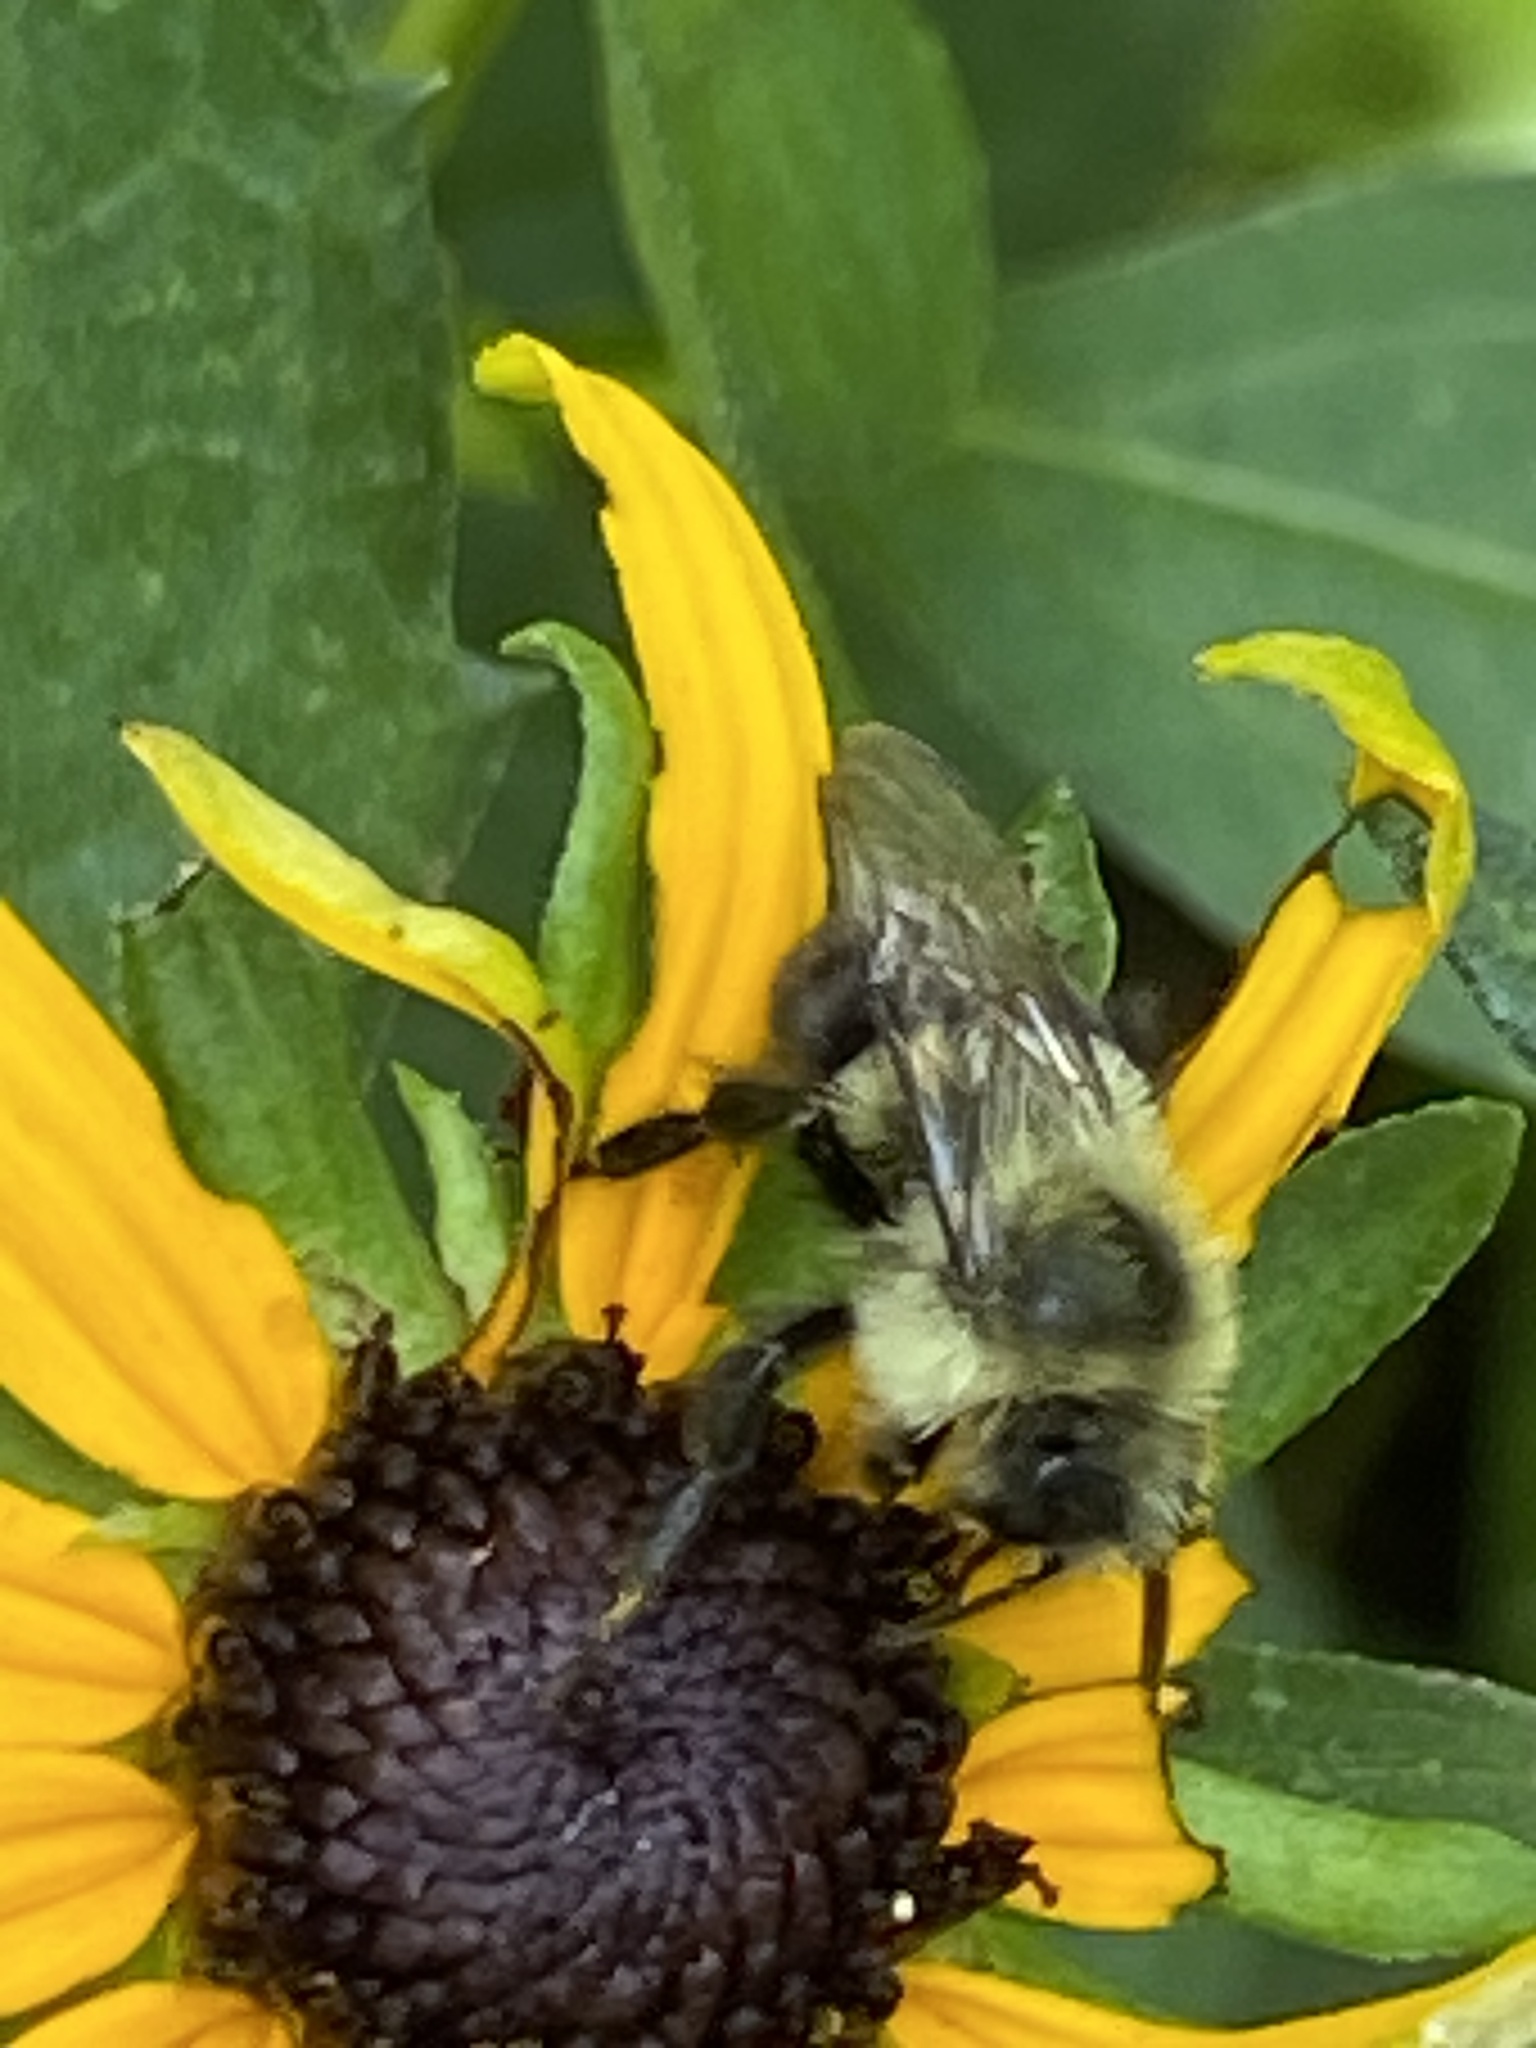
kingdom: Animalia
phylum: Arthropoda
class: Insecta
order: Hymenoptera
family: Apidae
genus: Bombus
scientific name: Bombus impatiens
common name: Common eastern bumble bee
